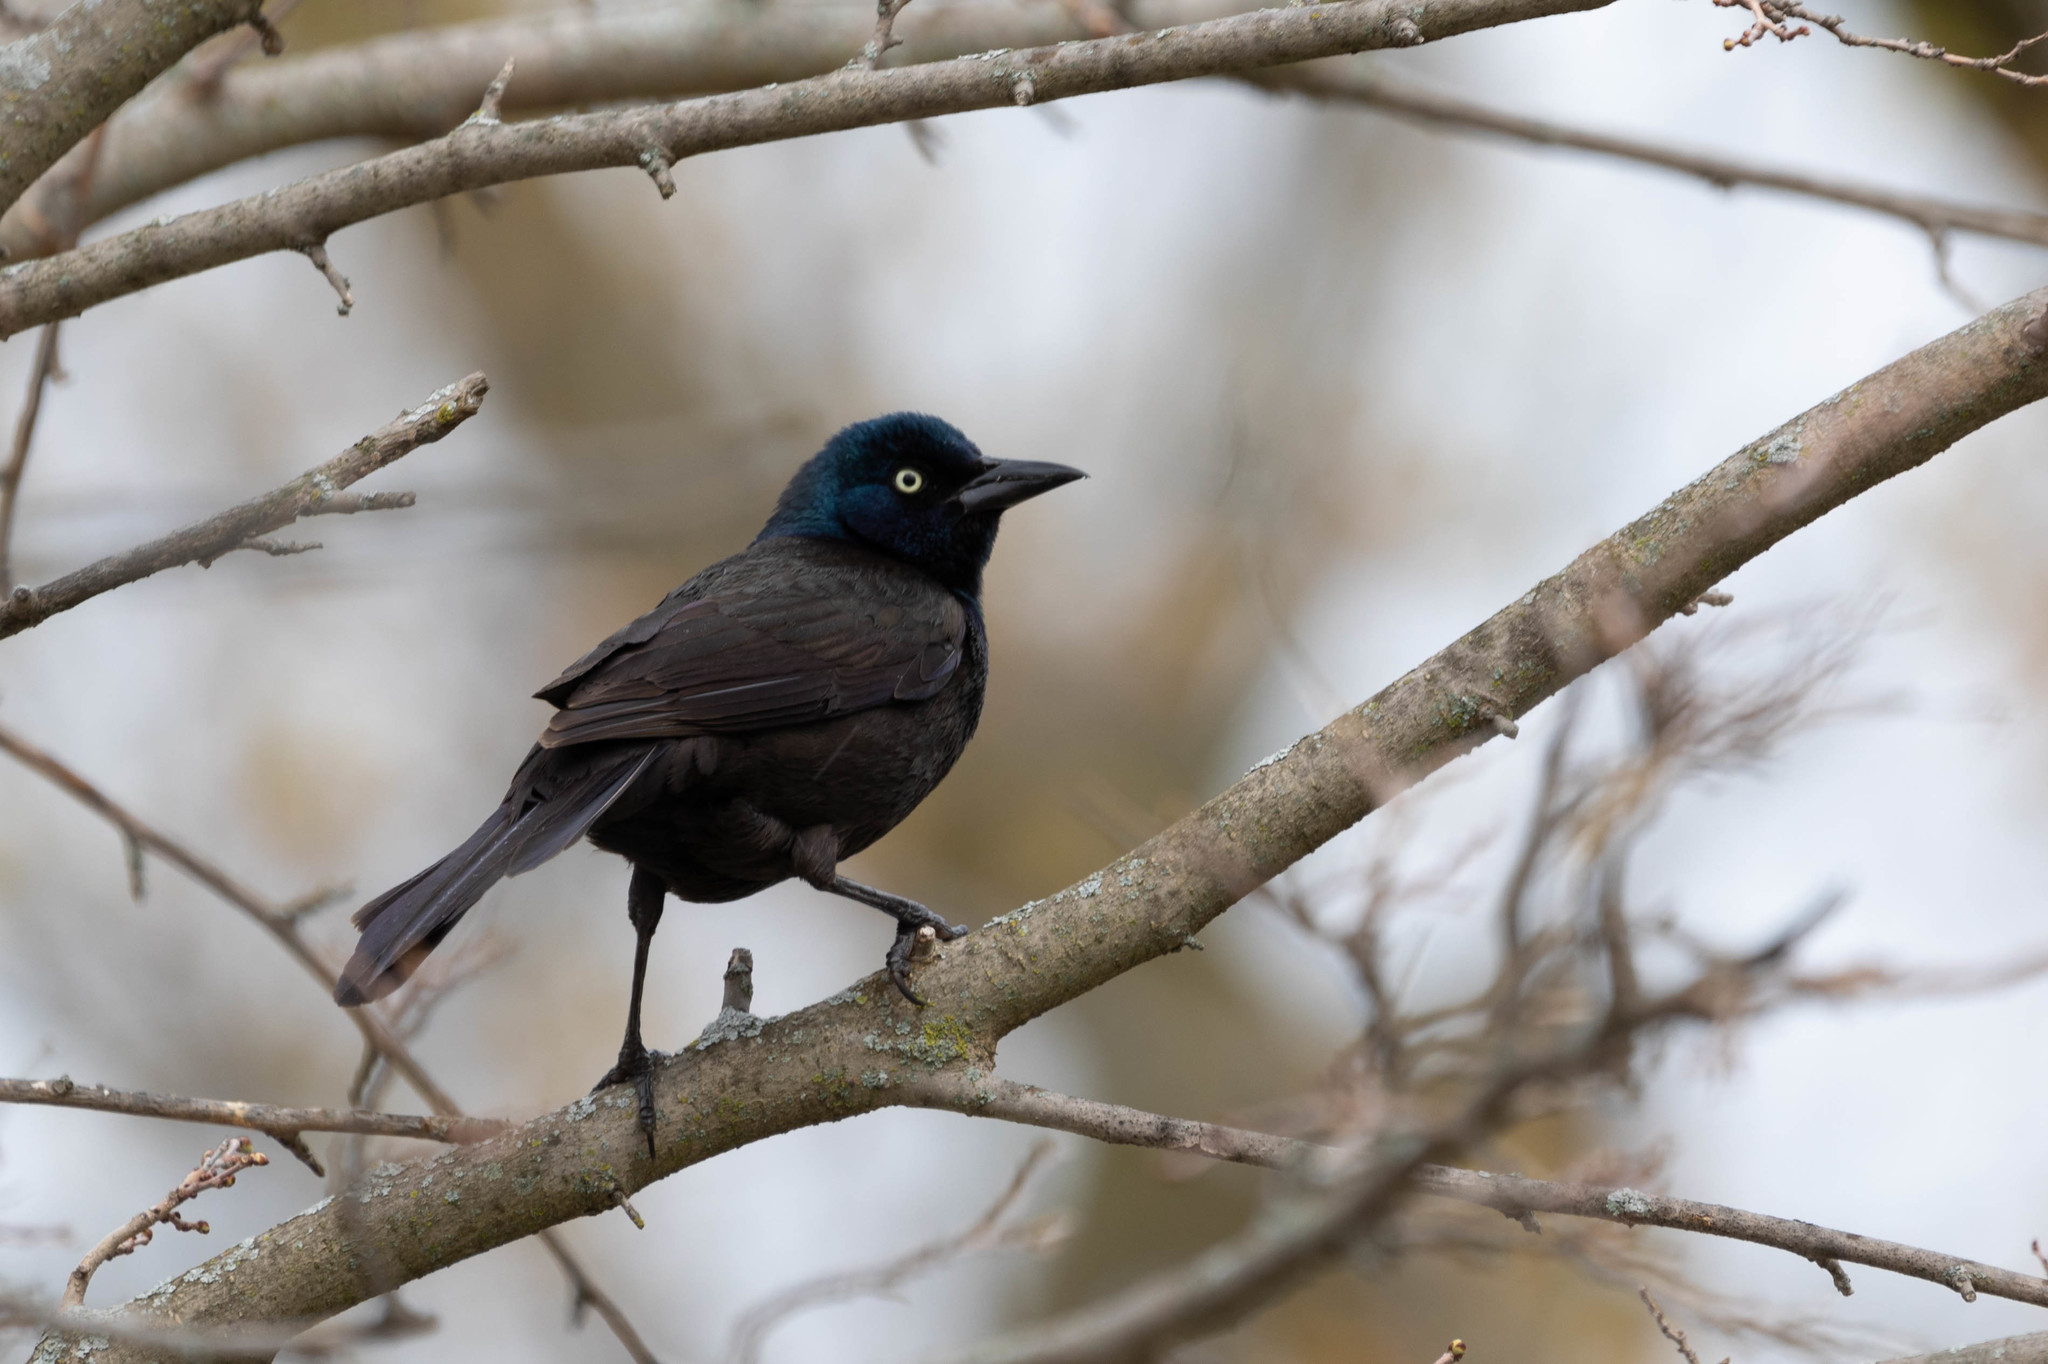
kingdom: Animalia
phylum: Chordata
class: Aves
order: Passeriformes
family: Icteridae
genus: Quiscalus
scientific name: Quiscalus quiscula
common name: Common grackle
